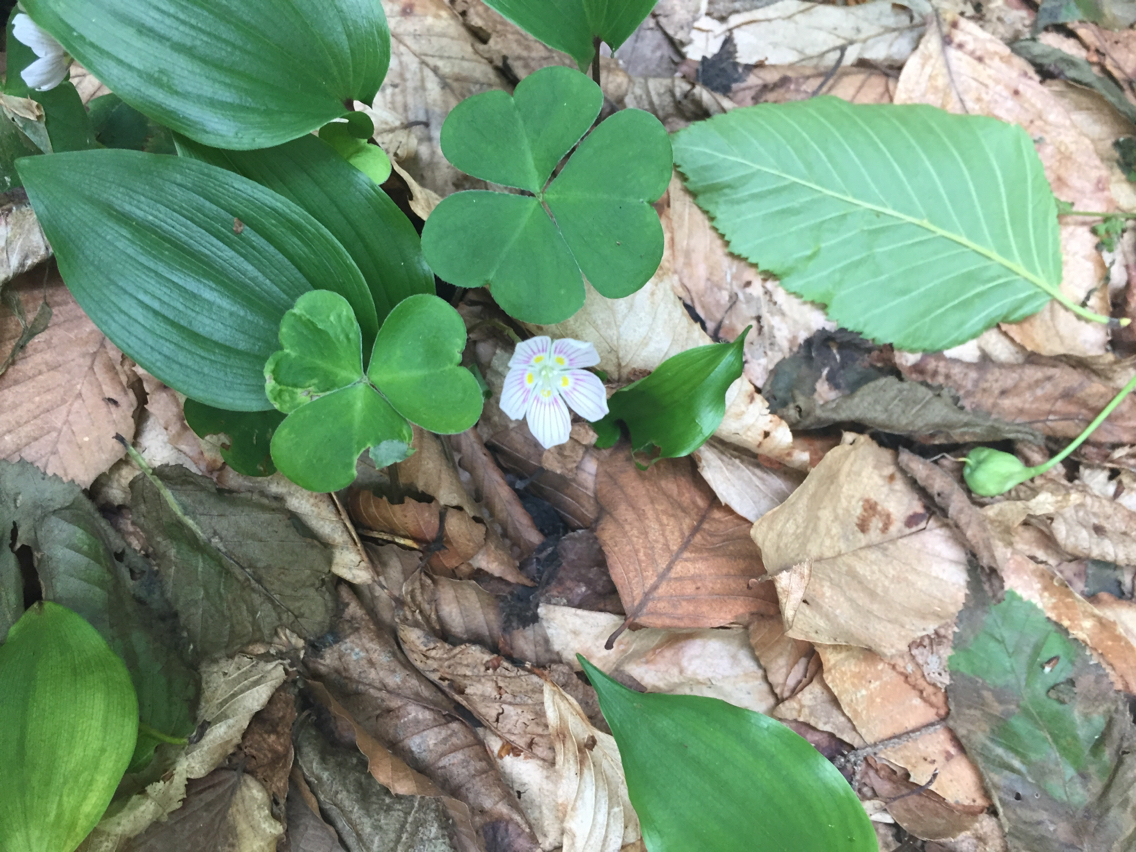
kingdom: Plantae
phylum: Tracheophyta
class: Magnoliopsida
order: Oxalidales
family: Oxalidaceae
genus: Oxalis
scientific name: Oxalis montana
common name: American wood-sorrel
